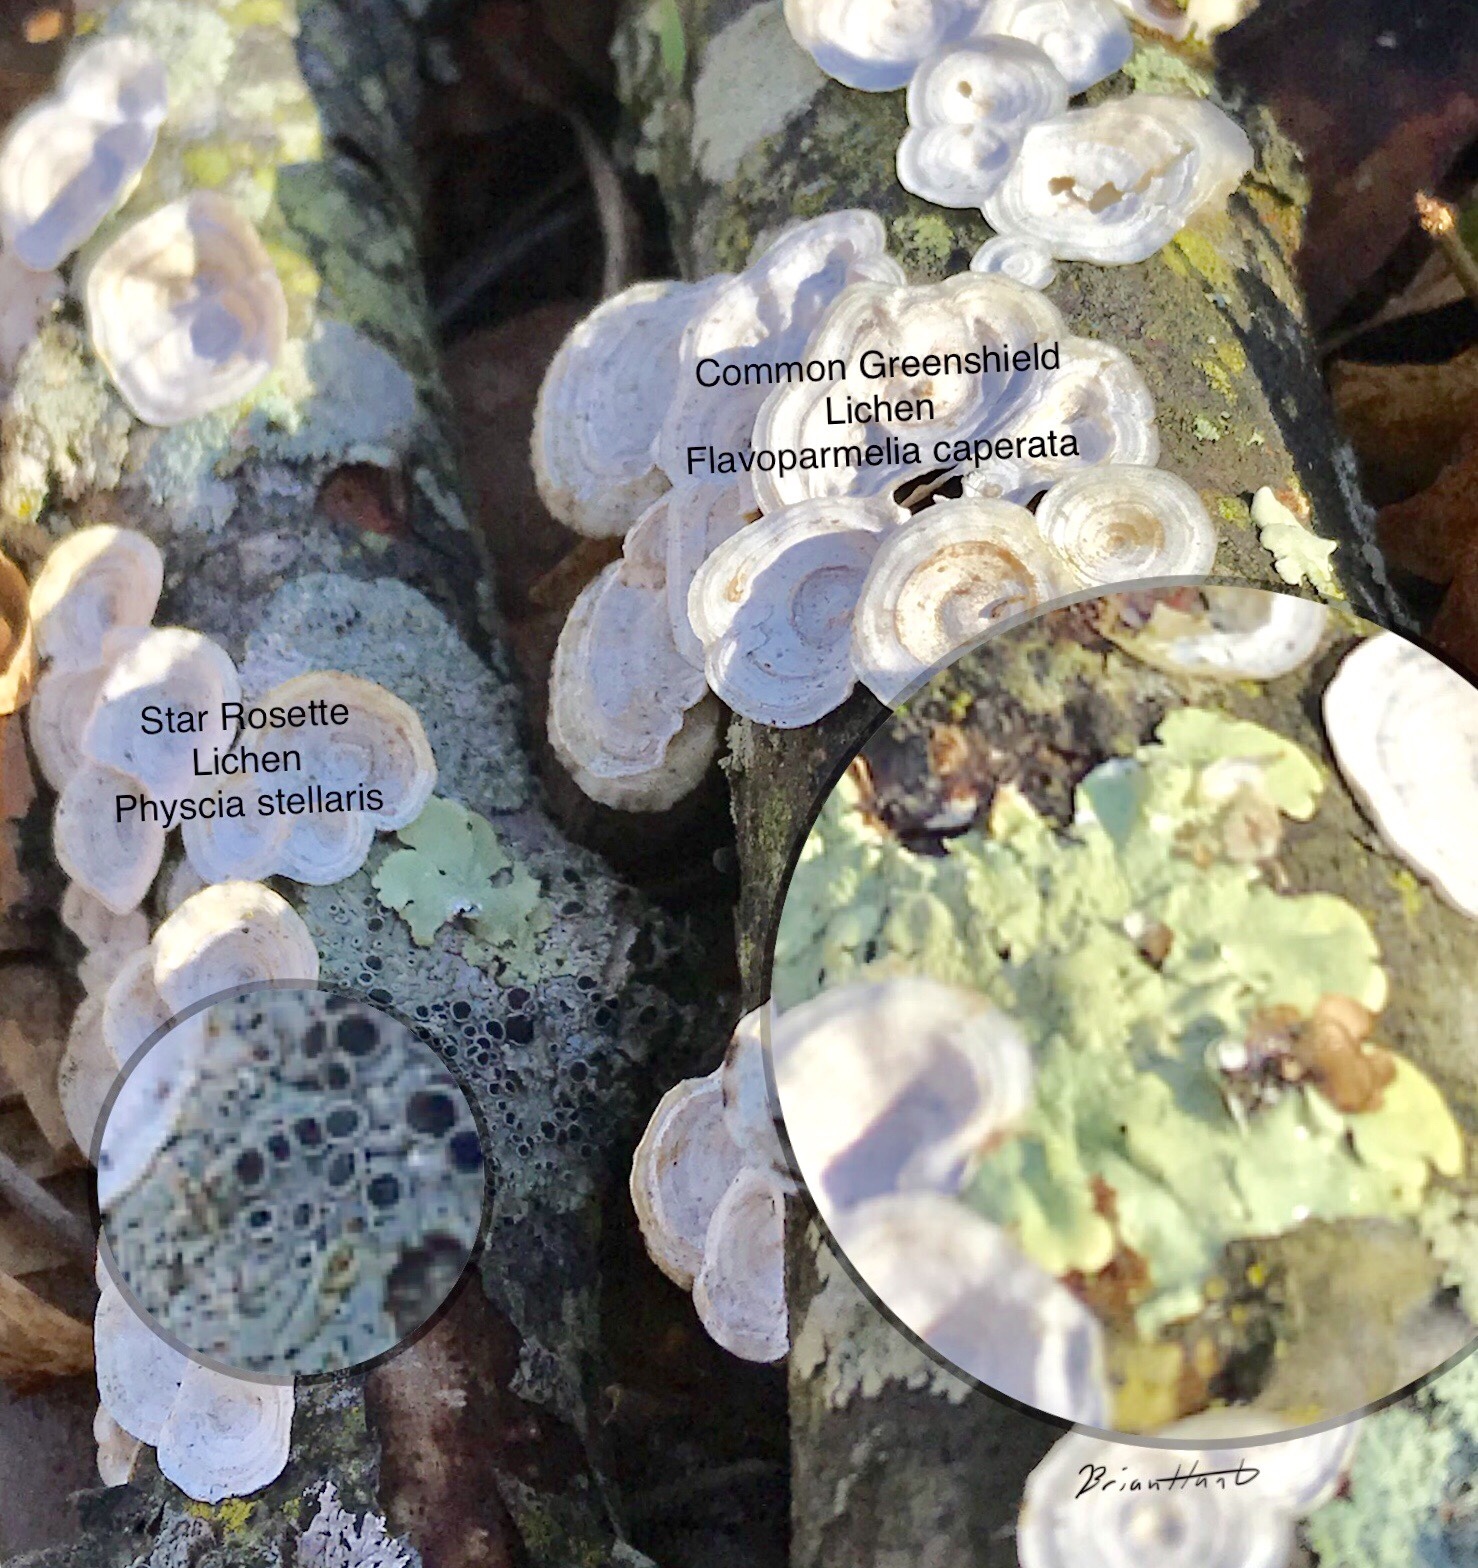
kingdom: Fungi
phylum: Basidiomycota
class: Agaricomycetes
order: Polyporales
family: Polyporaceae
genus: Poronidulus
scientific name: Poronidulus conchifer
